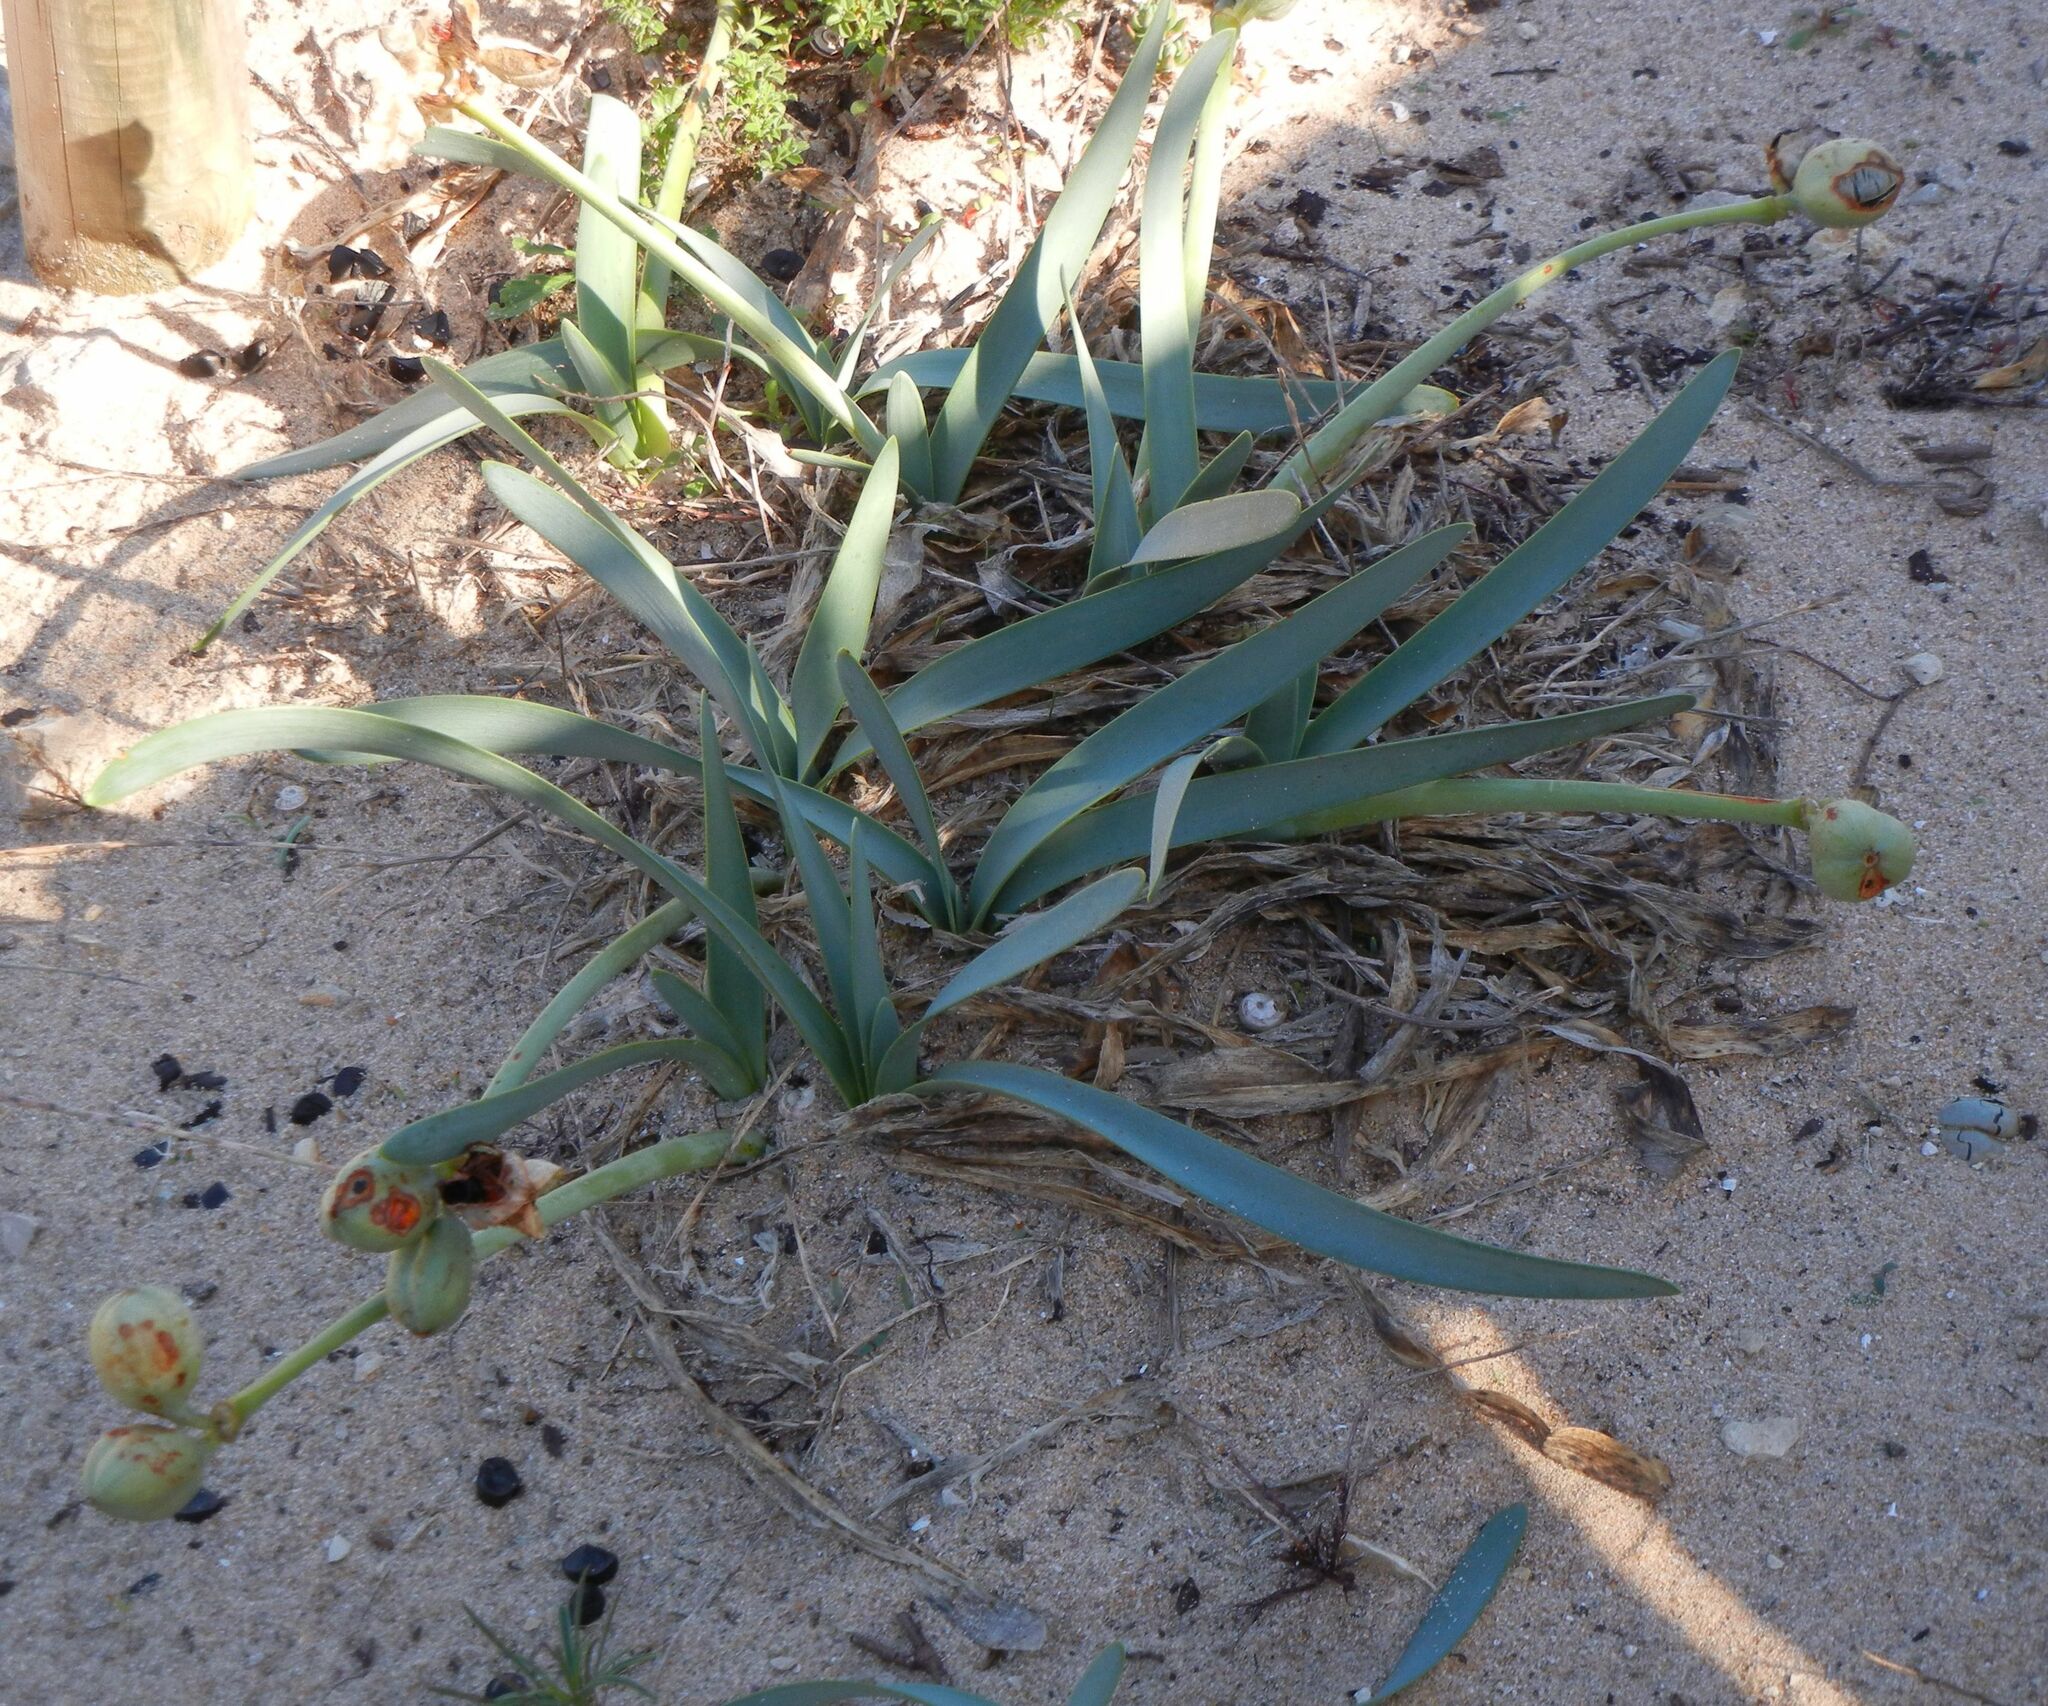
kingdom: Plantae
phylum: Tracheophyta
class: Liliopsida
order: Asparagales
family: Amaryllidaceae
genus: Pancratium
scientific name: Pancratium maritimum
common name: Sea-daffodil
